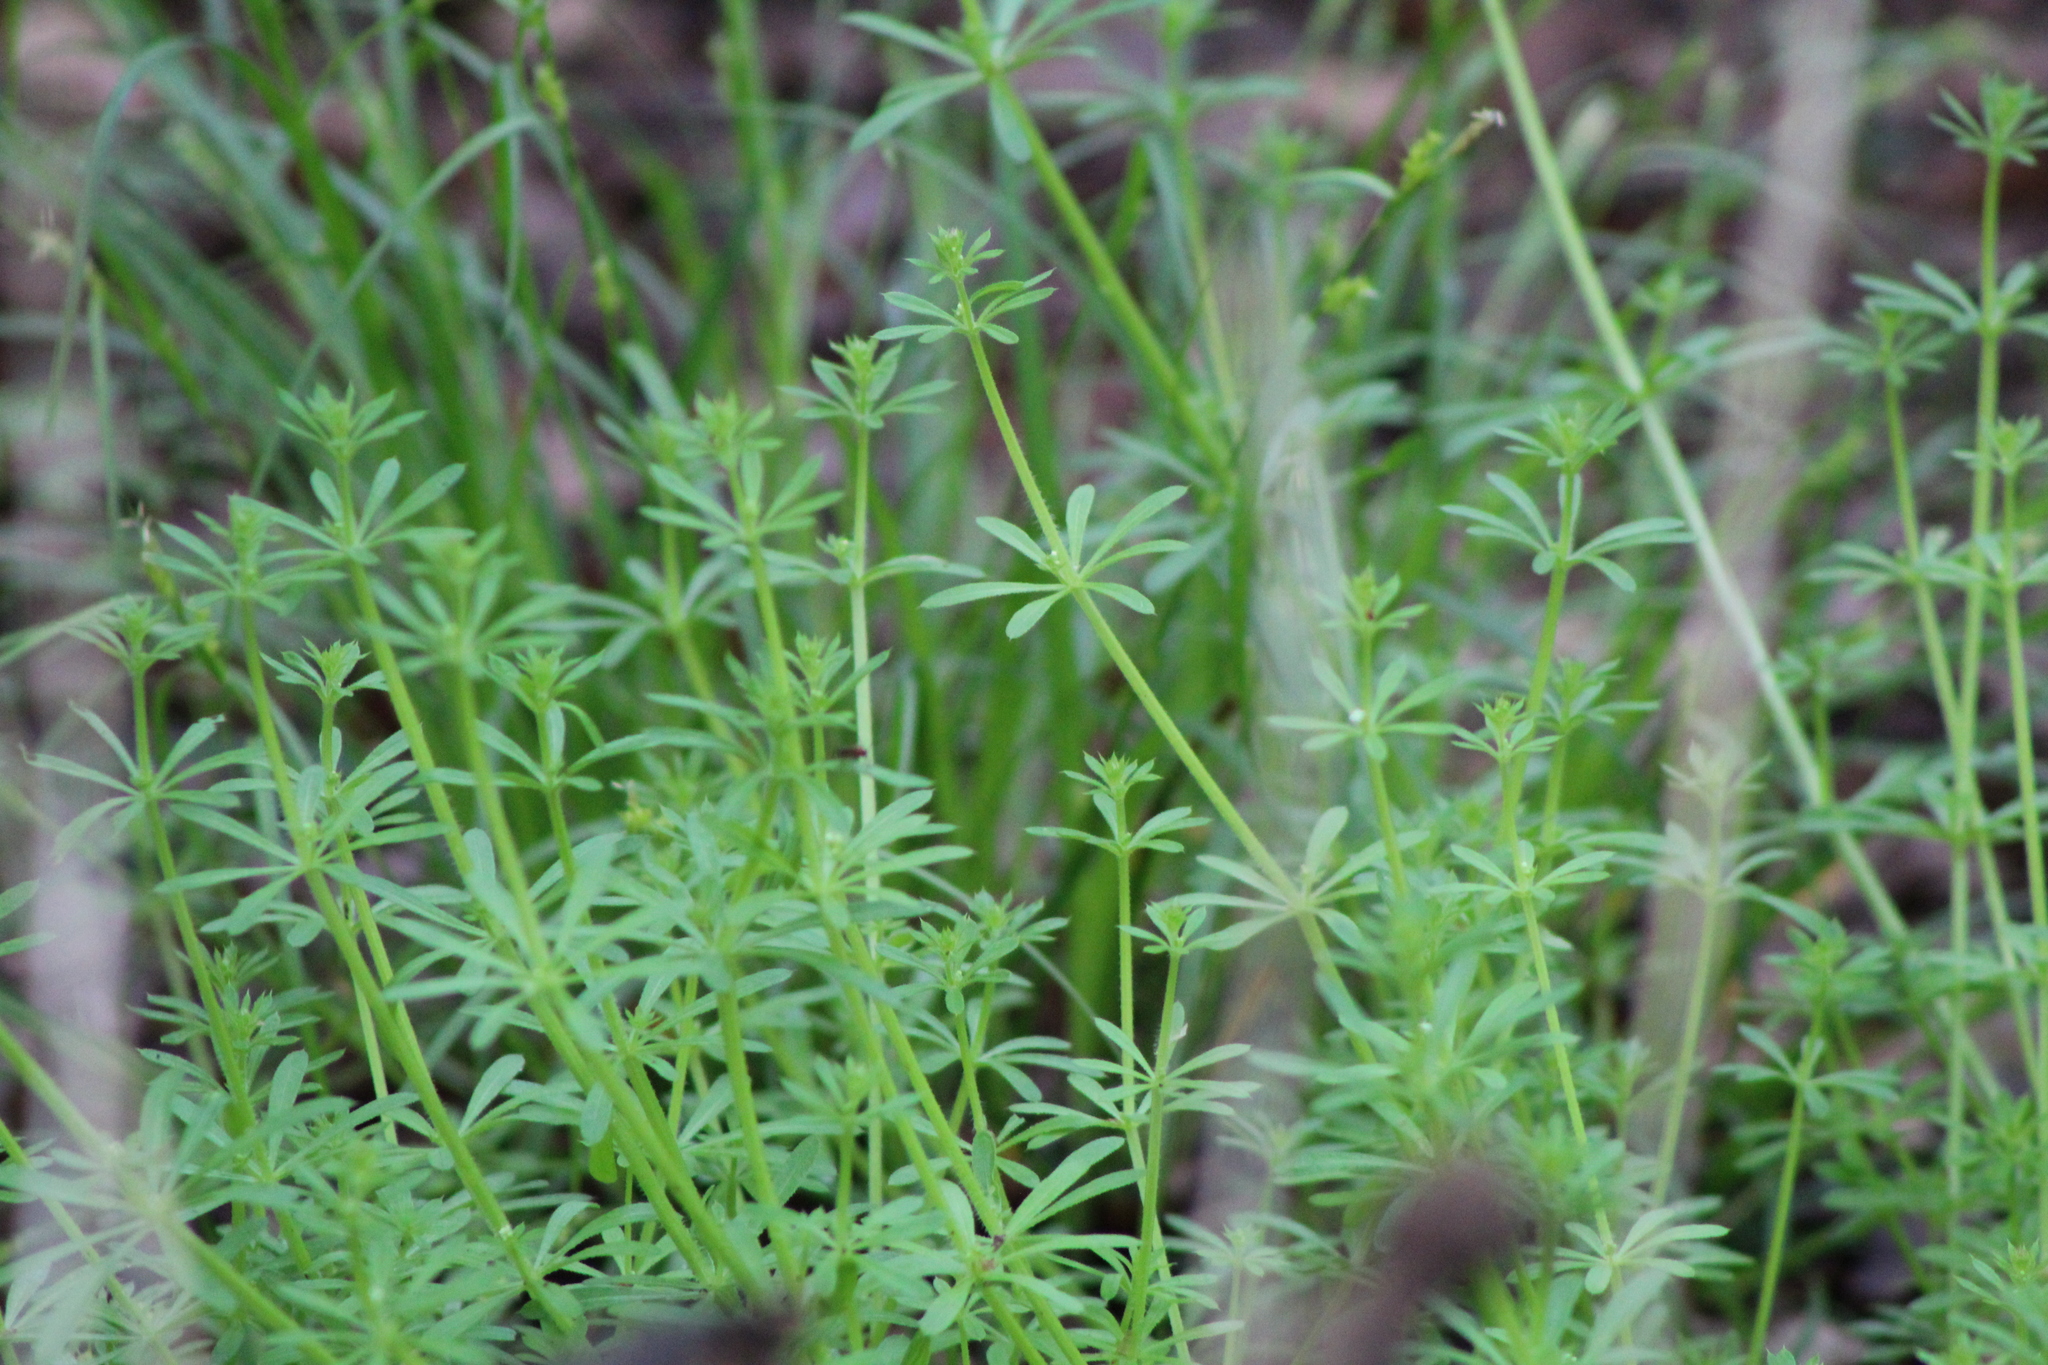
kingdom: Plantae
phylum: Tracheophyta
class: Magnoliopsida
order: Gentianales
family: Rubiaceae
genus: Galium
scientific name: Galium aparine
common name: Cleavers
